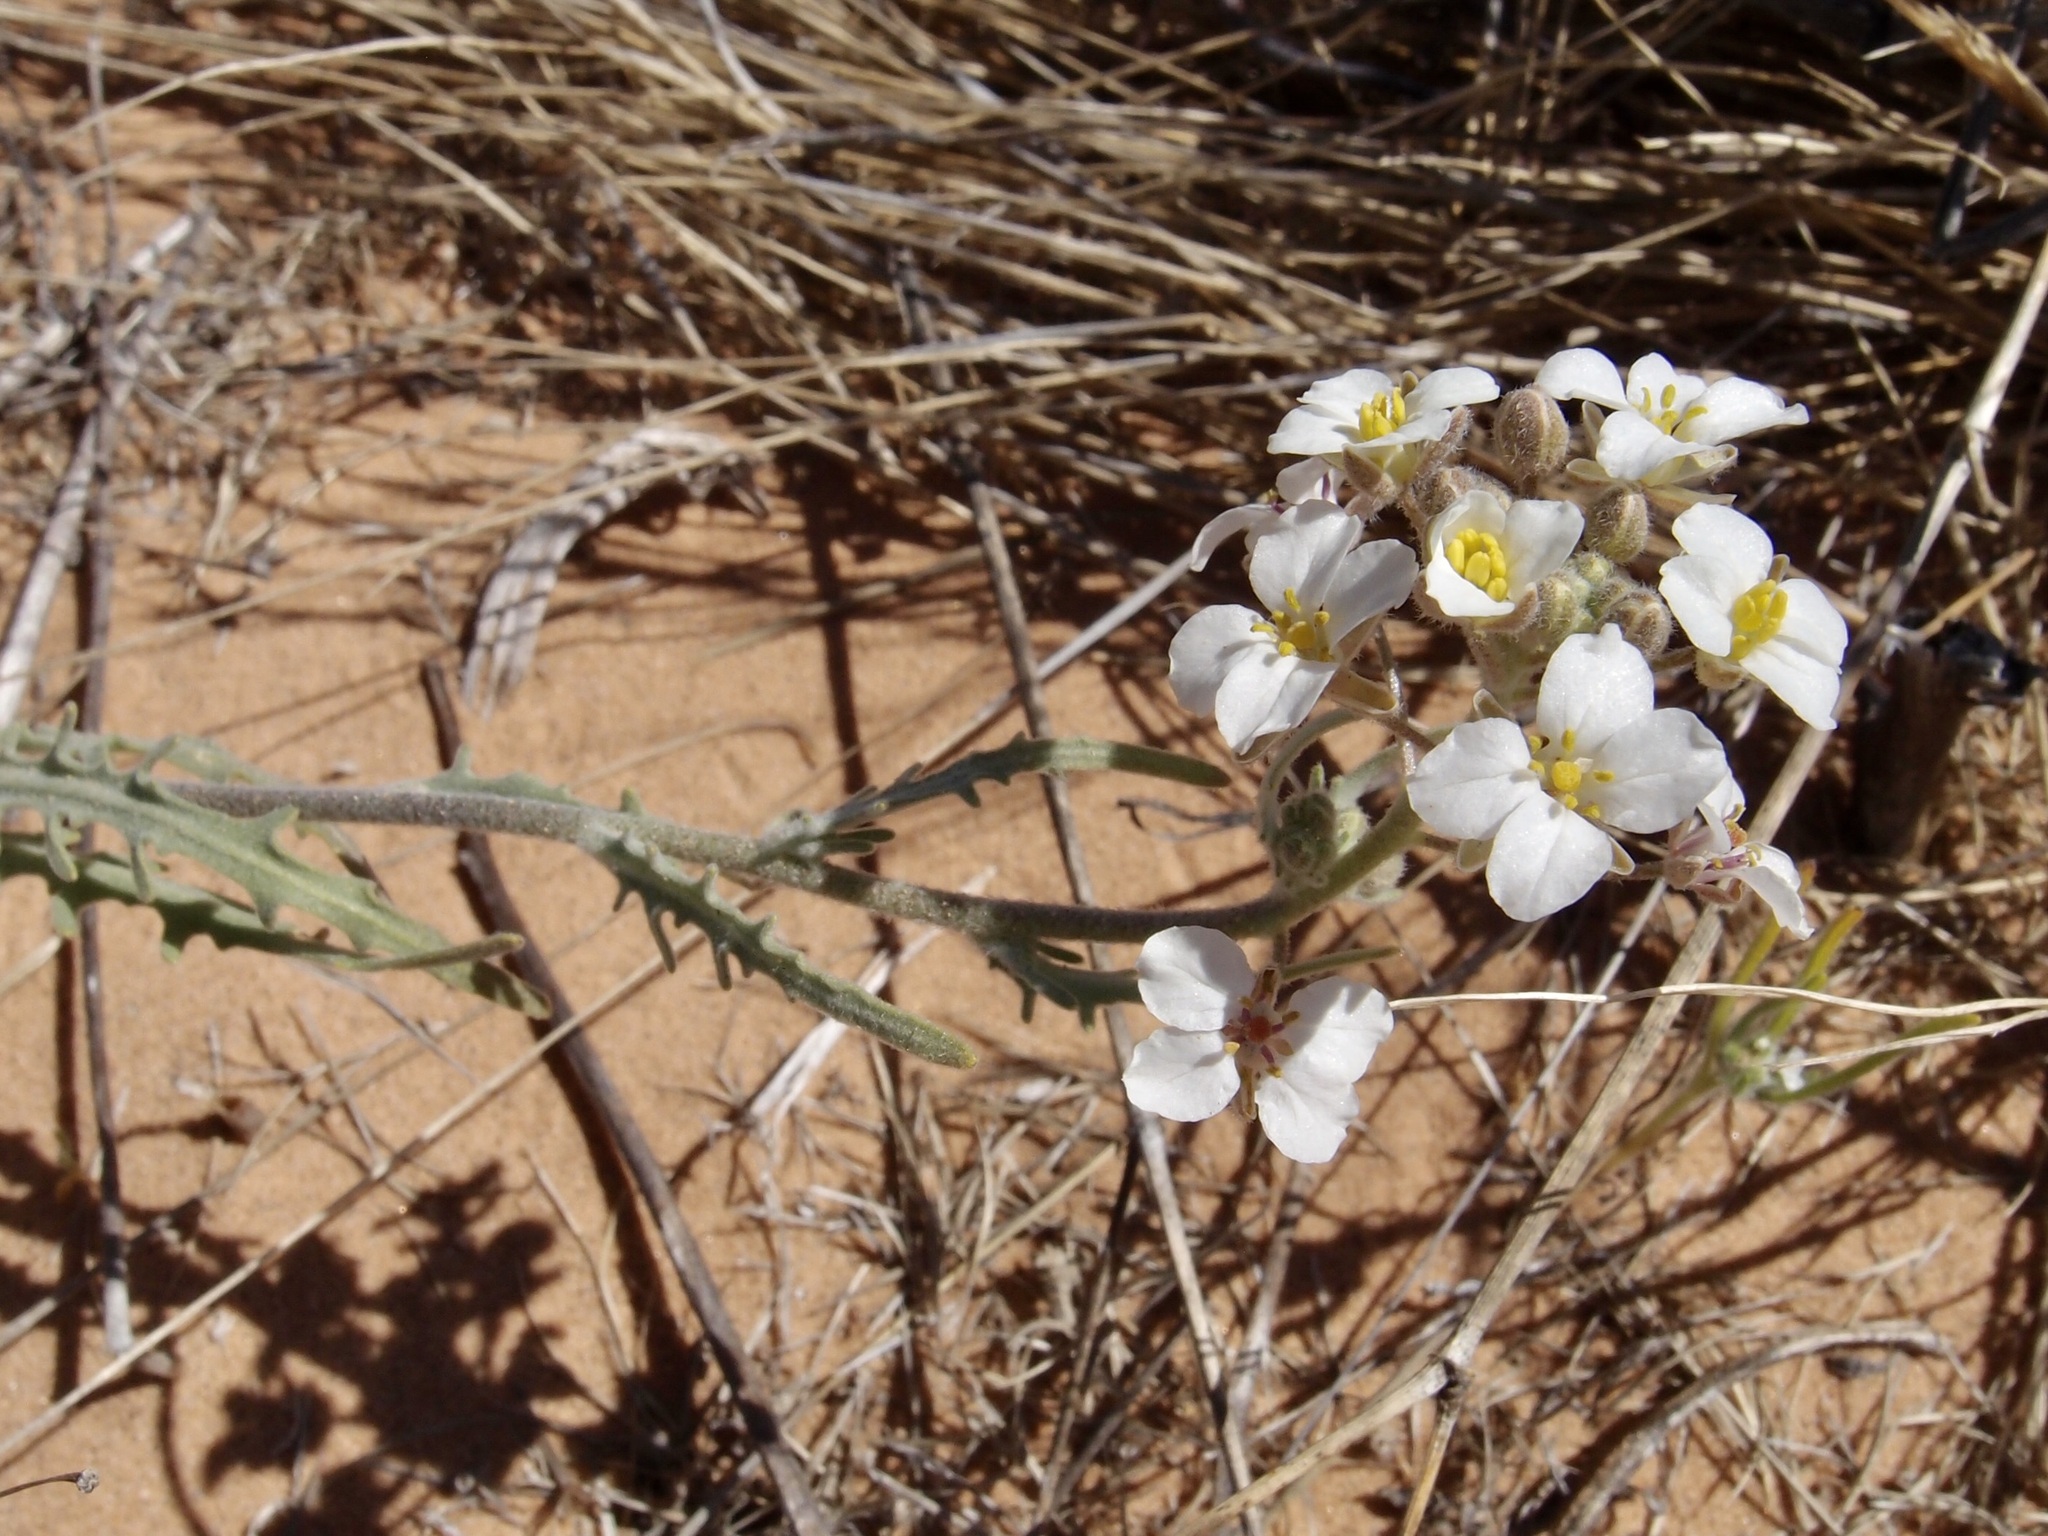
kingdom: Plantae
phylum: Tracheophyta
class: Magnoliopsida
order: Brassicales
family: Brassicaceae
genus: Dimorphocarpa
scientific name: Dimorphocarpa pinnatifida
